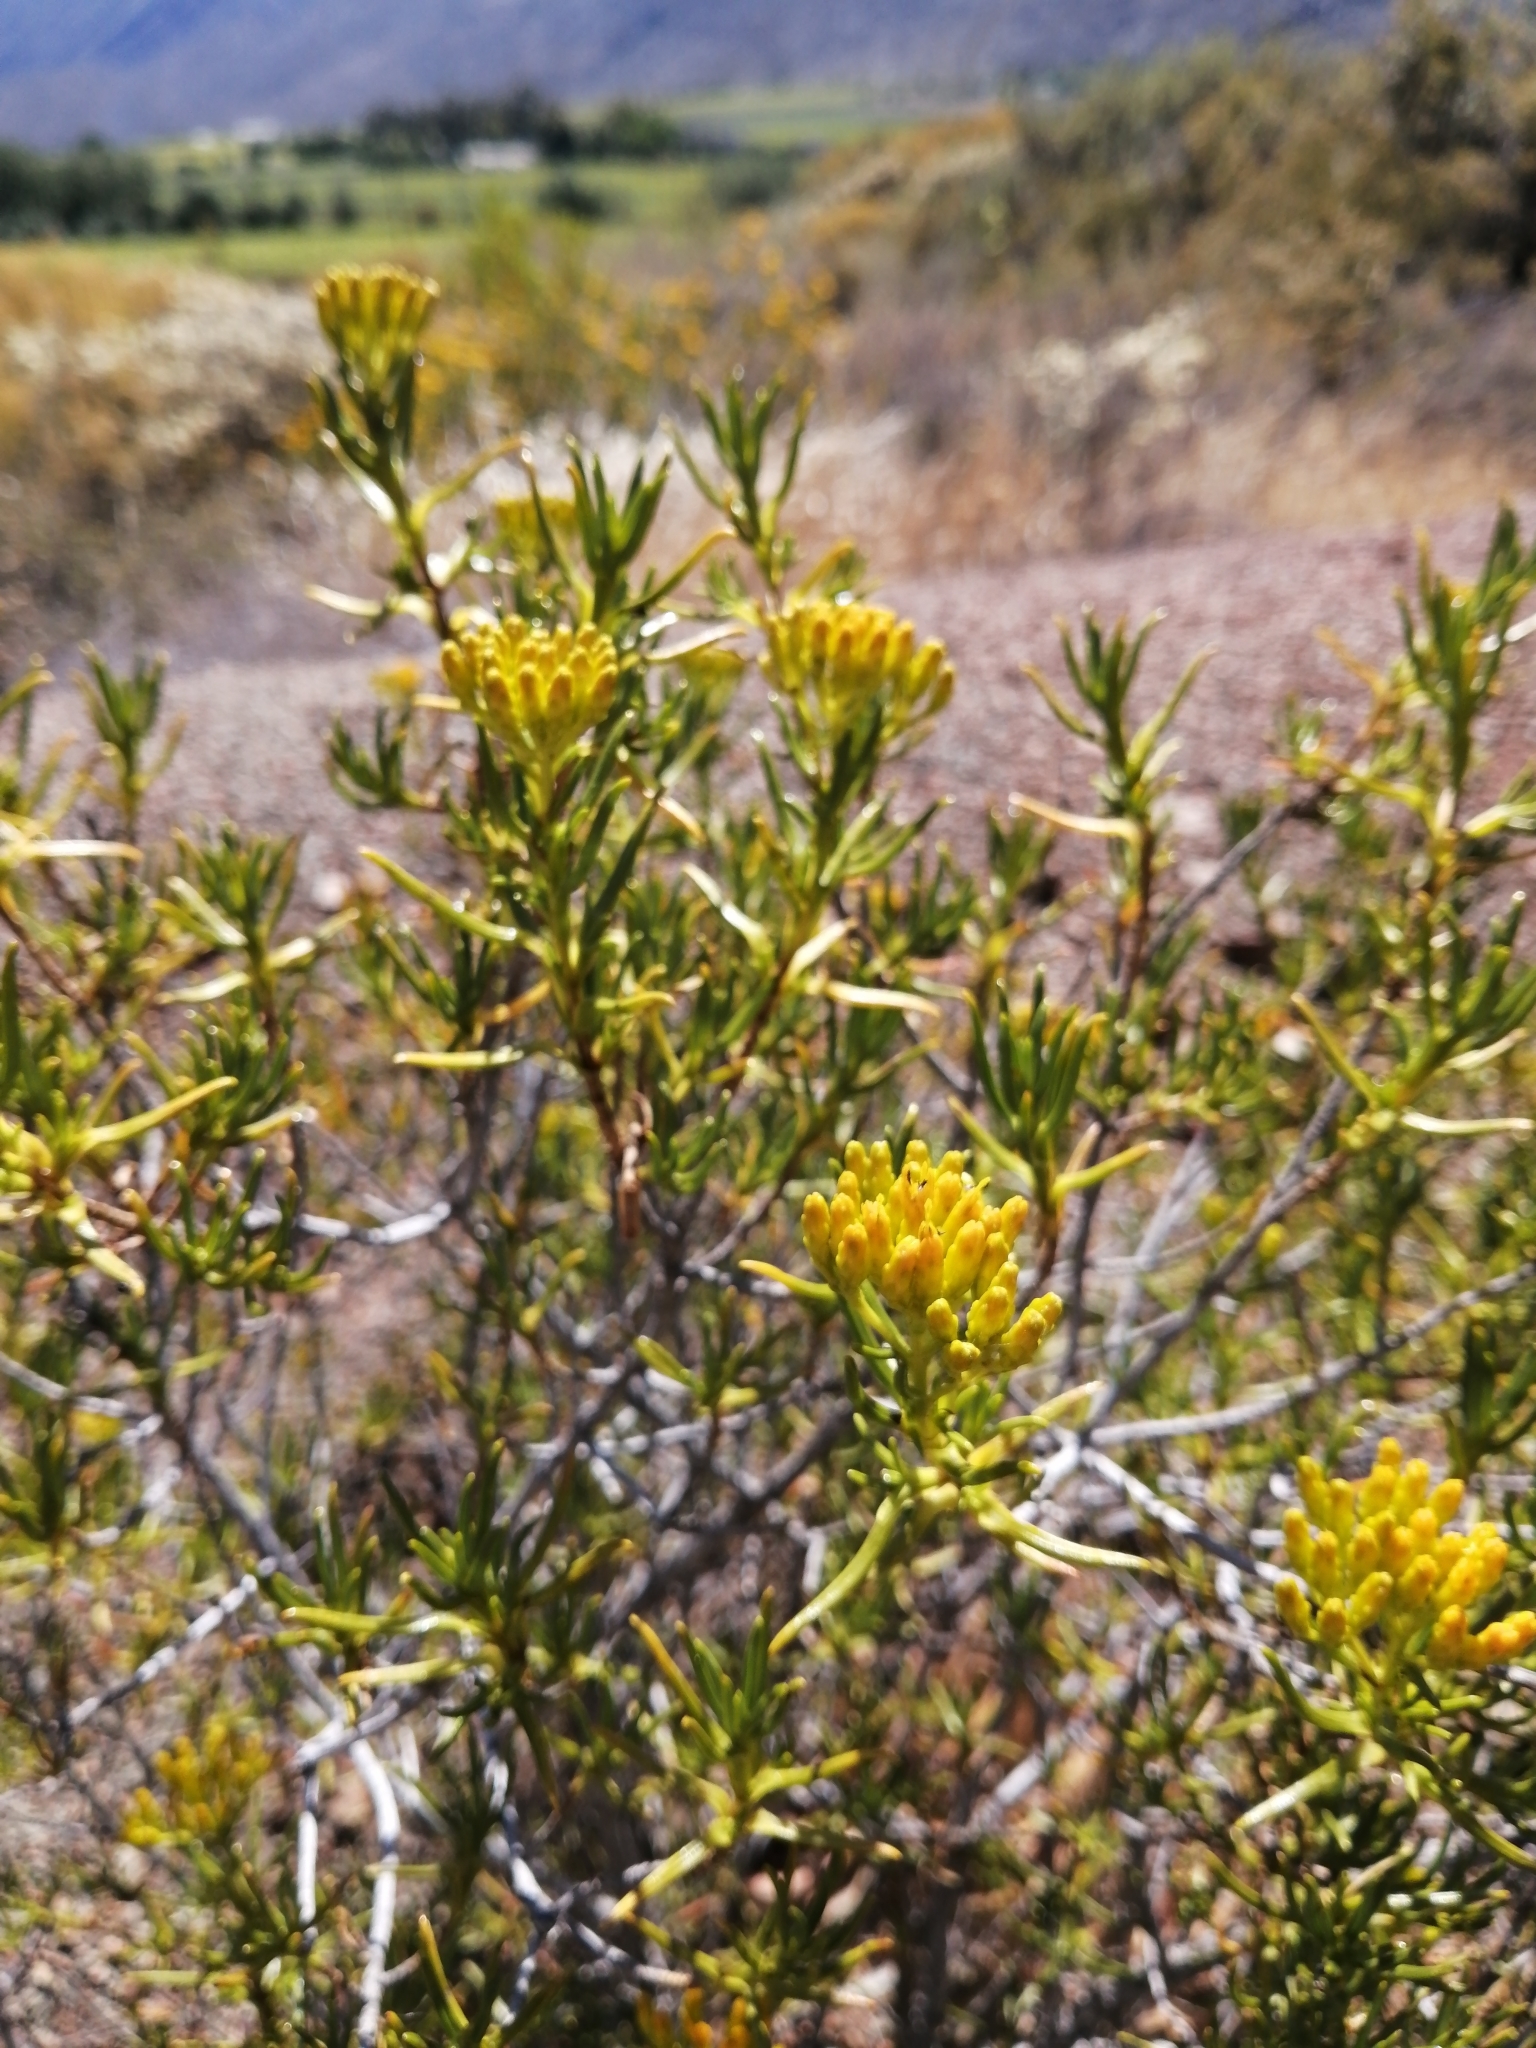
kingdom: Plantae
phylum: Tracheophyta
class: Magnoliopsida
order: Asterales
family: Asteraceae
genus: Pteronia
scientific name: Pteronia paniculata
